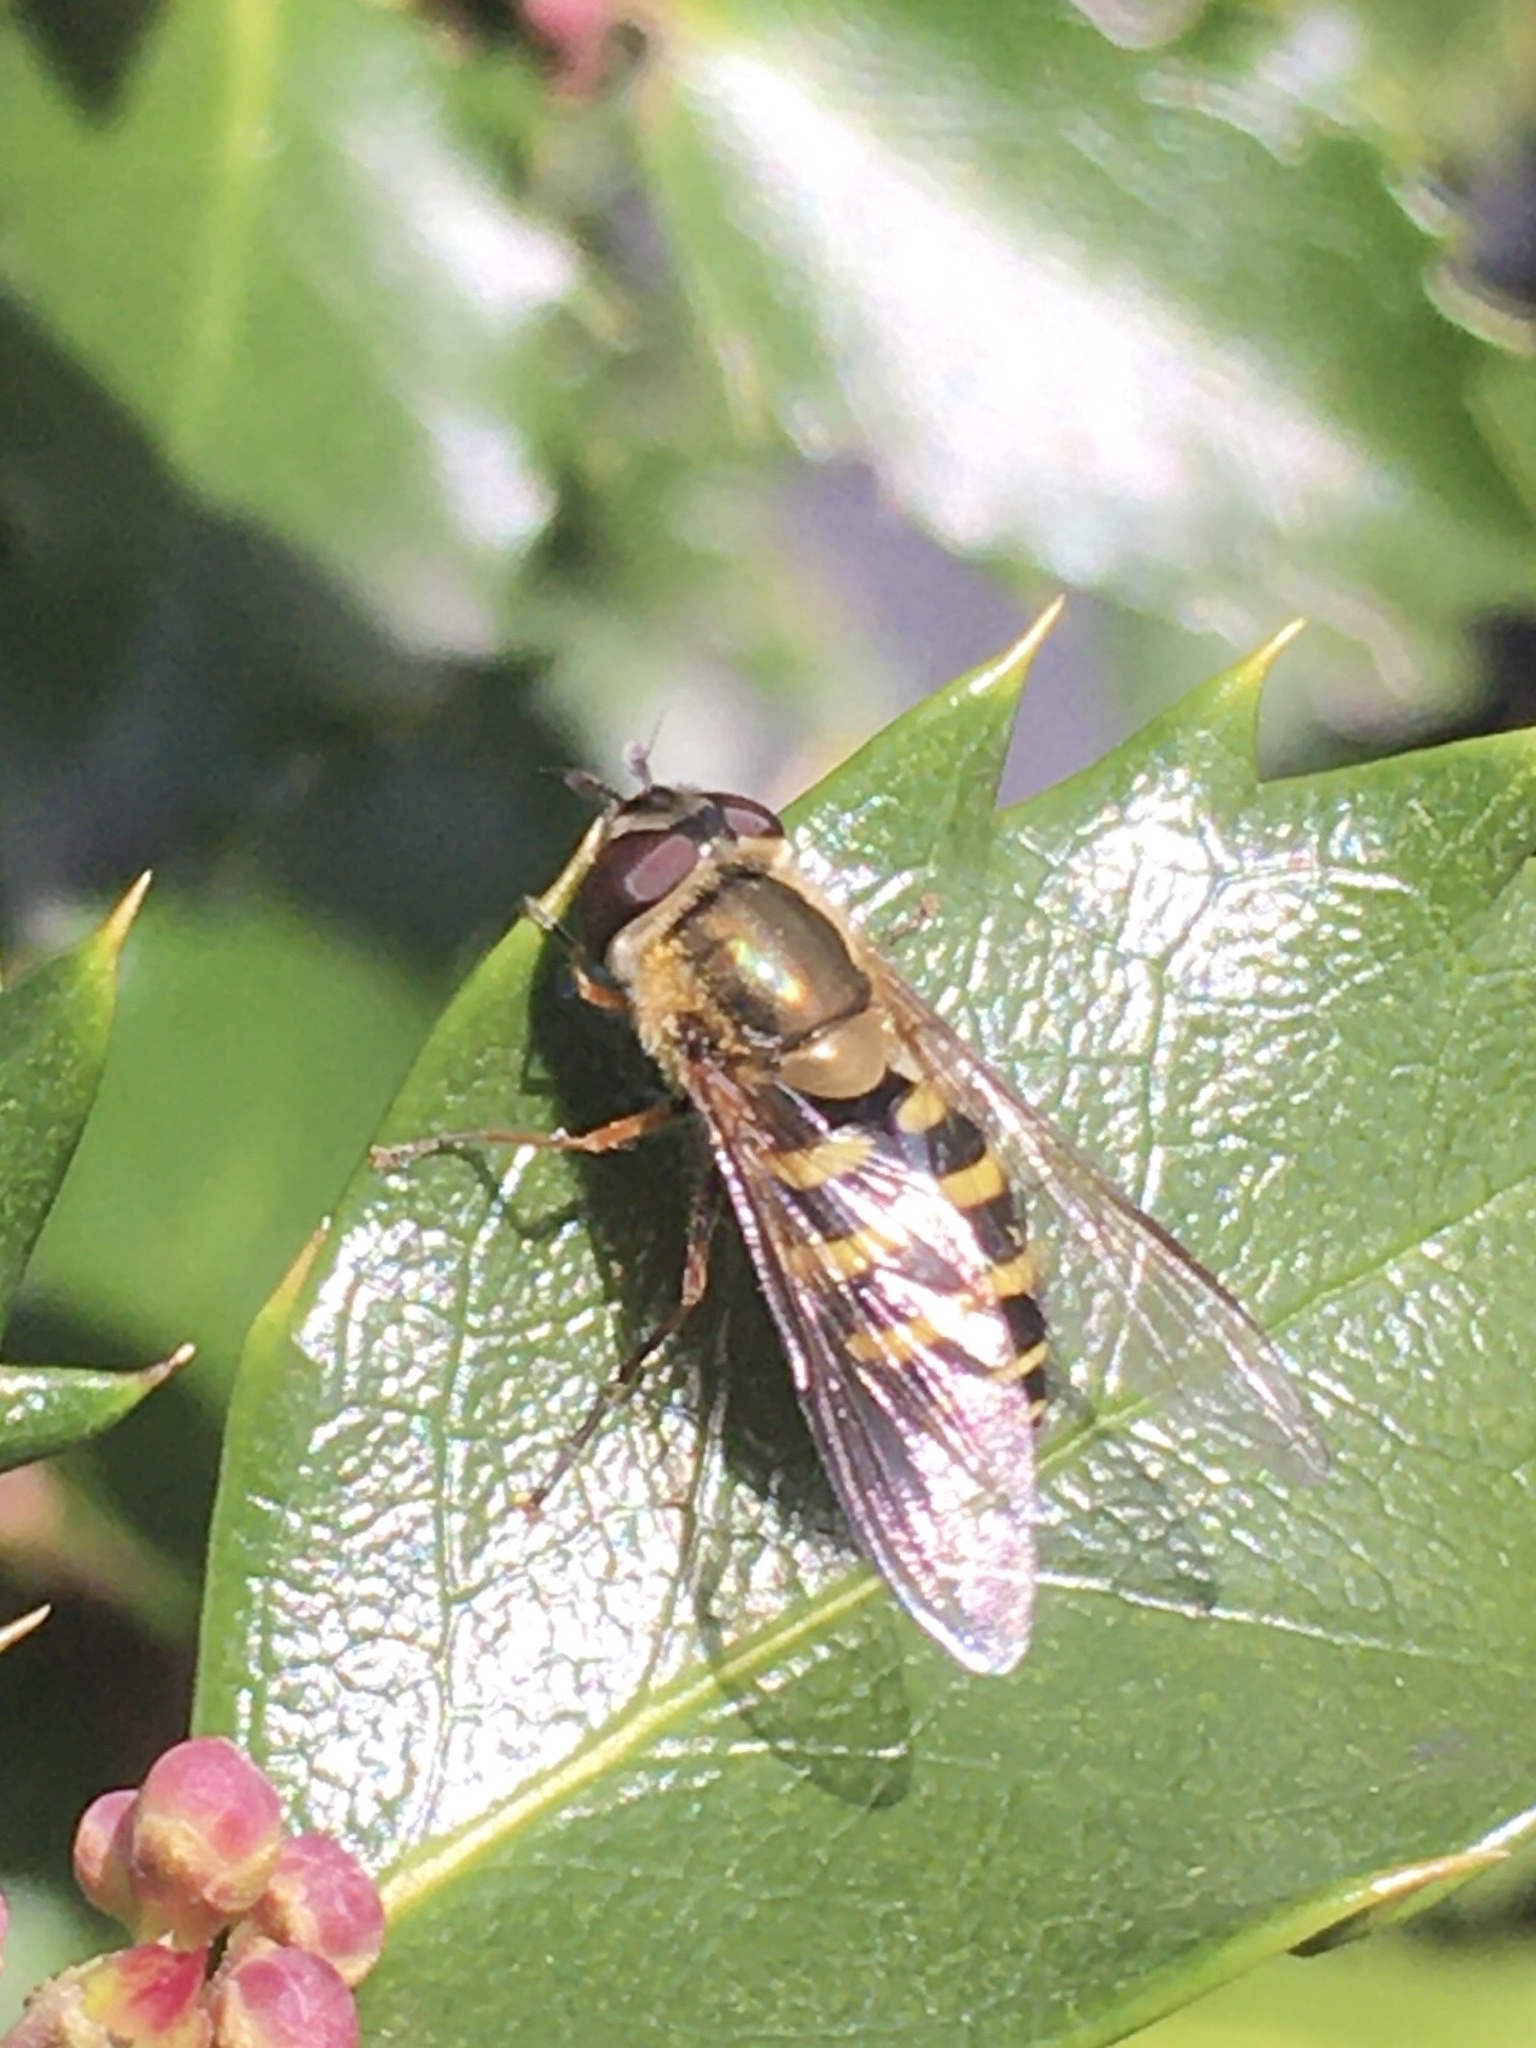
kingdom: Animalia
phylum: Arthropoda
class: Insecta
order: Diptera
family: Syrphidae
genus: Syrphus
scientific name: Syrphus
